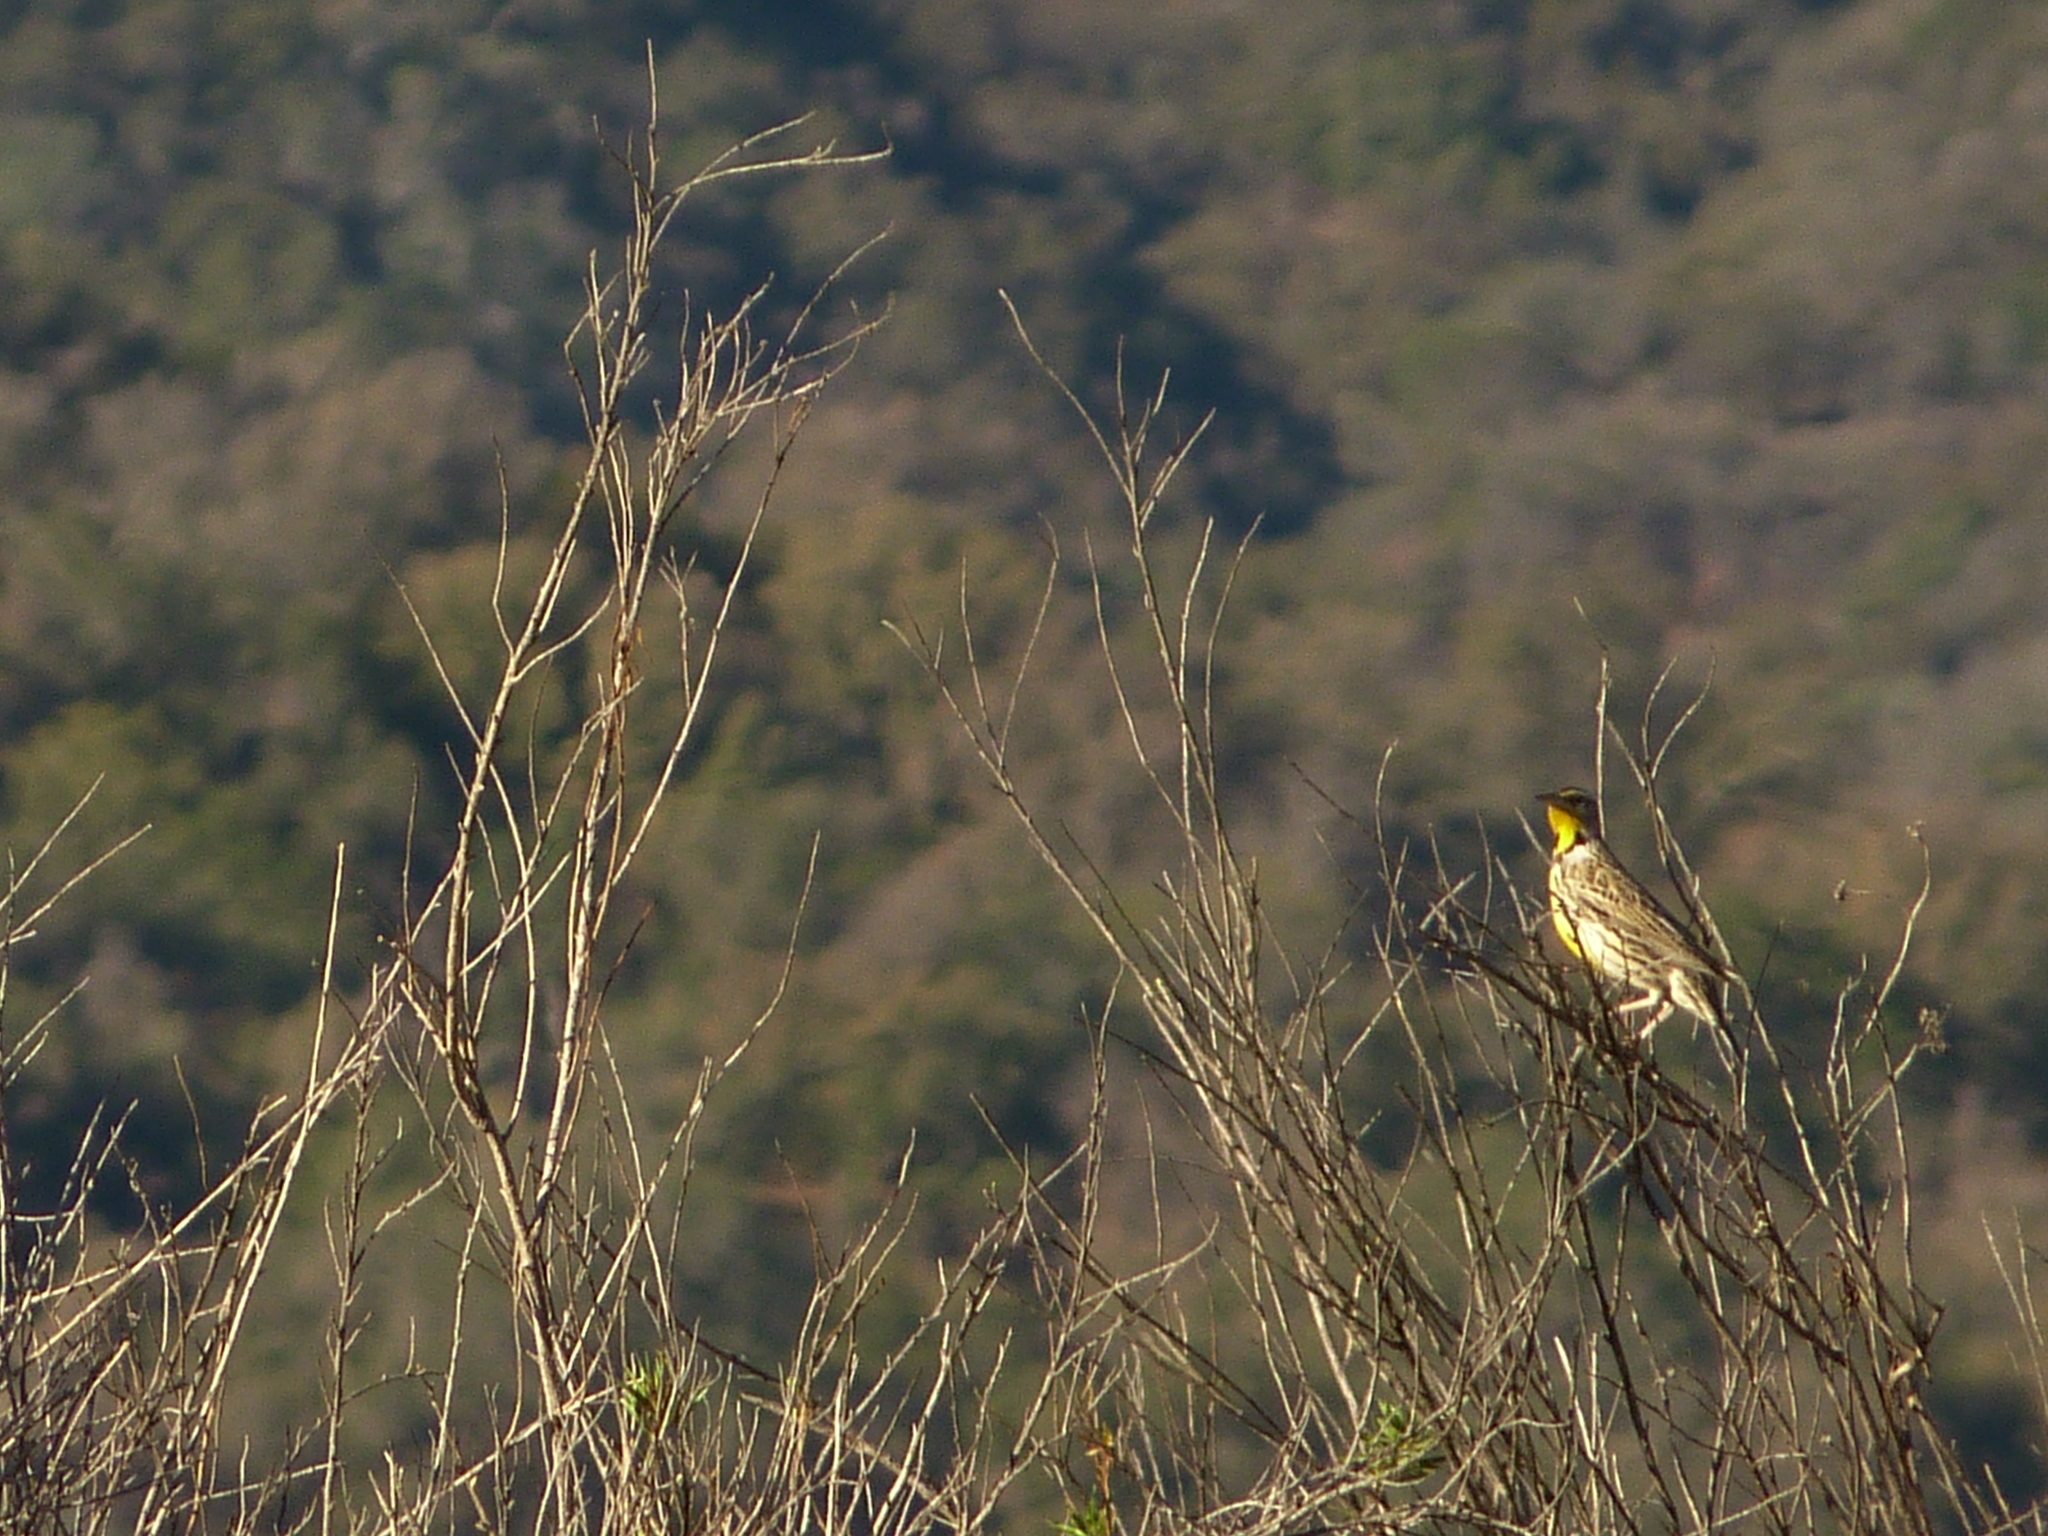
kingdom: Animalia
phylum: Chordata
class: Aves
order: Passeriformes
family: Icteridae
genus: Sturnella
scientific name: Sturnella neglecta
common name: Western meadowlark
